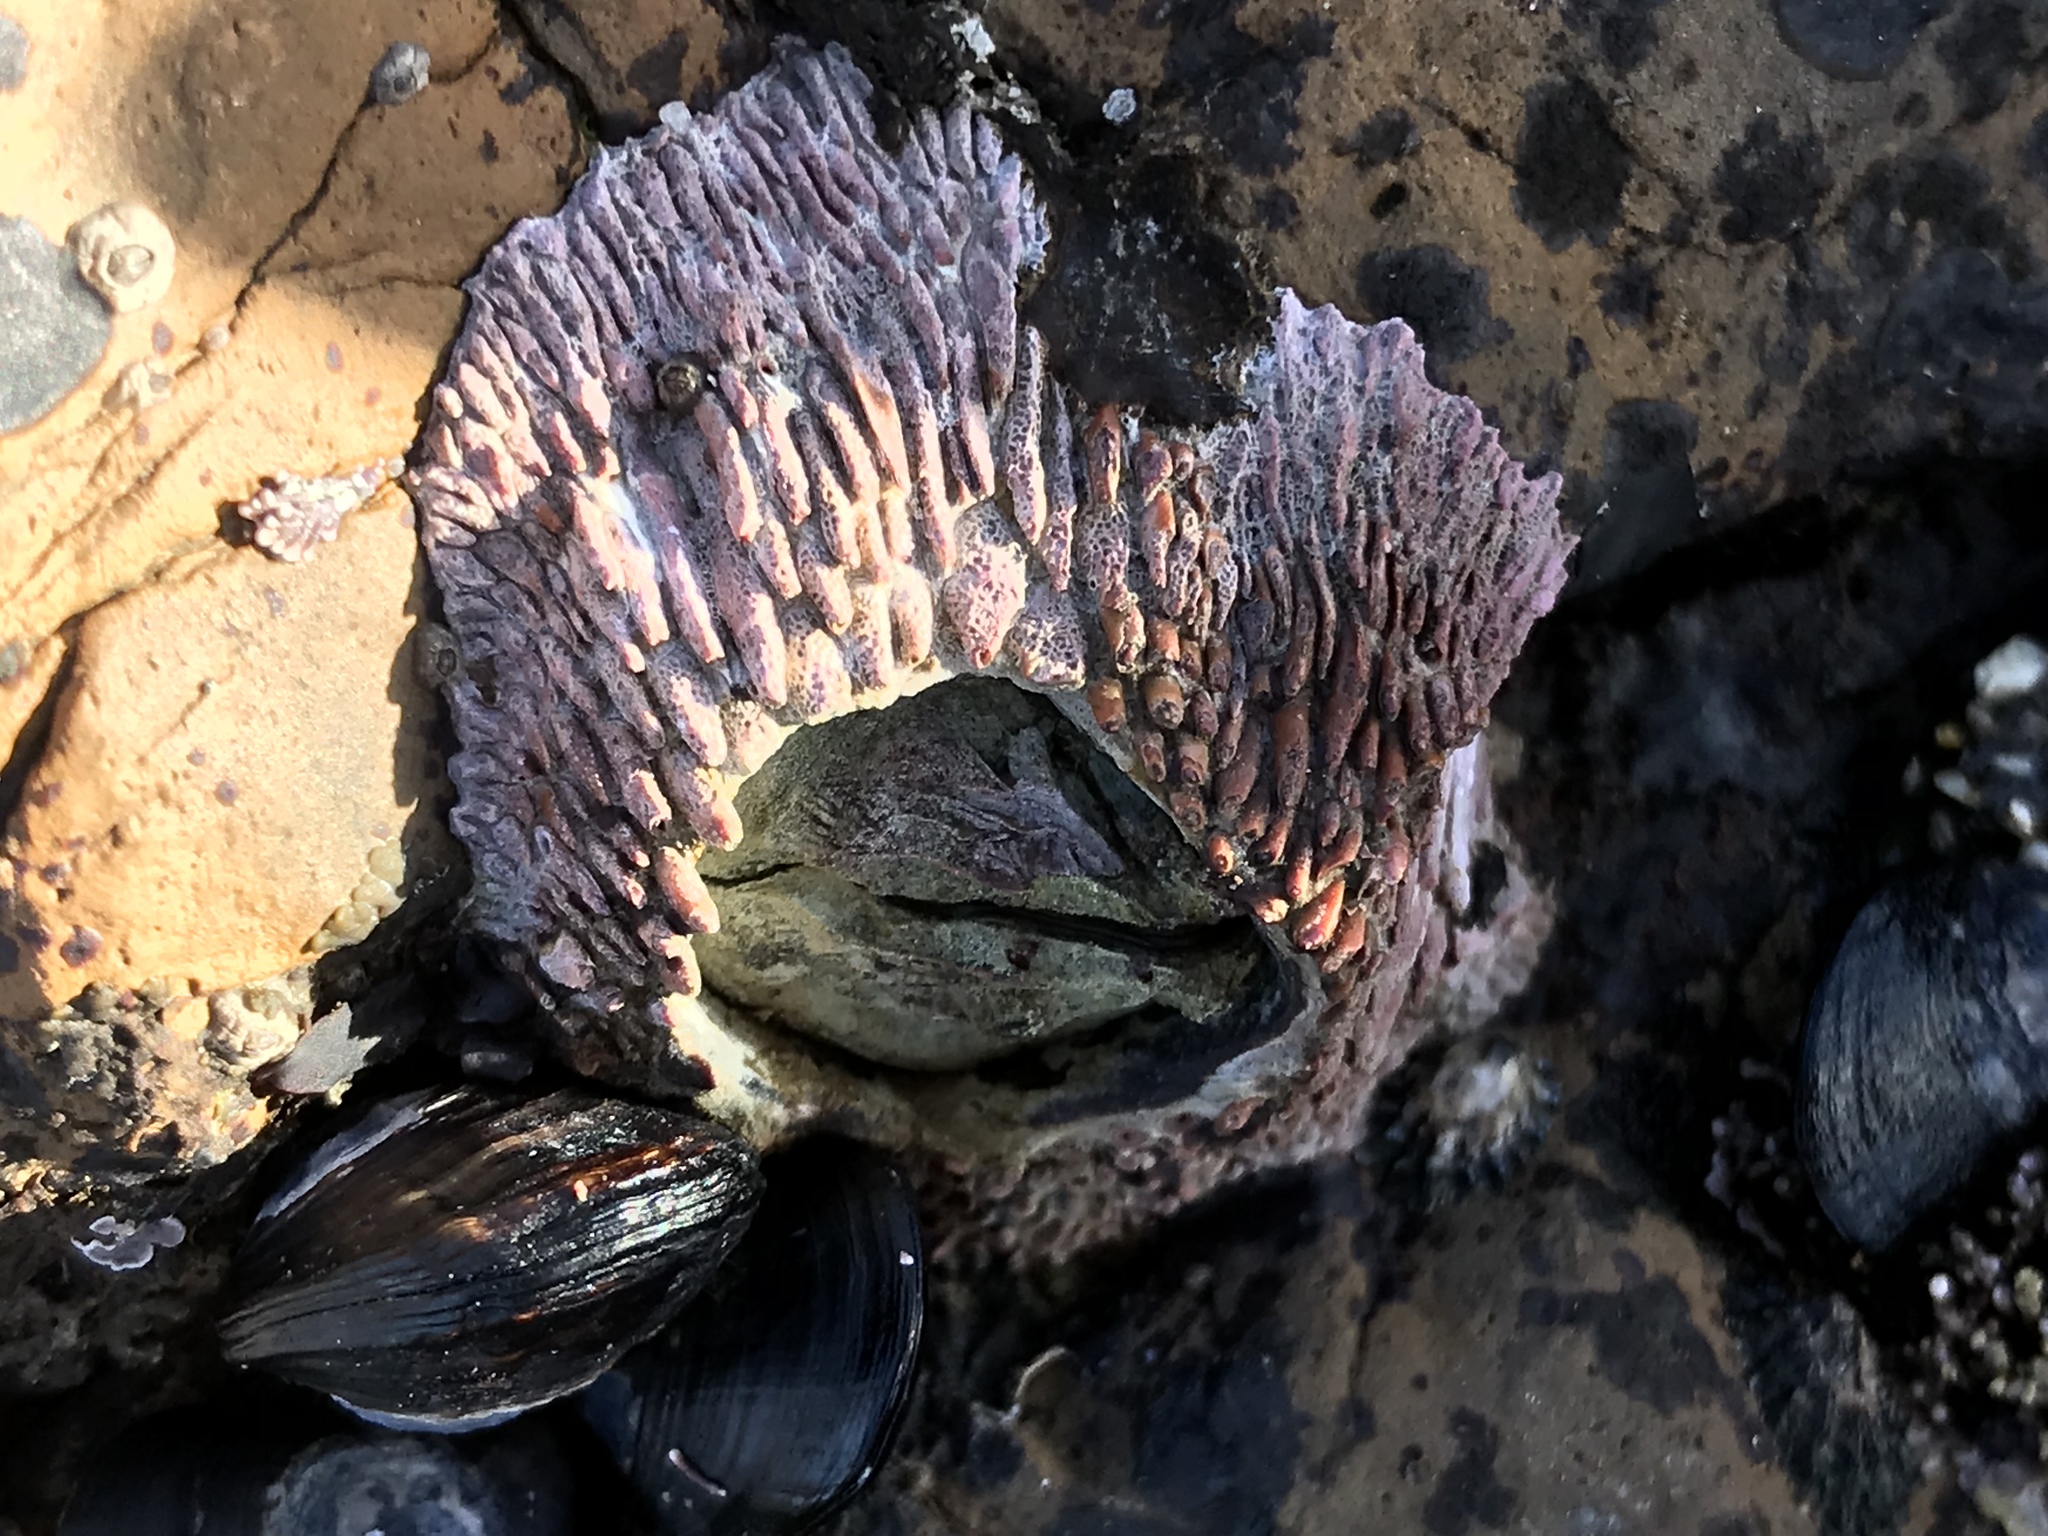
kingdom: Animalia
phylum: Arthropoda
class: Maxillopoda
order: Sessilia
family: Tetraclitidae
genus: Tetraclita
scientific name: Tetraclita rubescens
